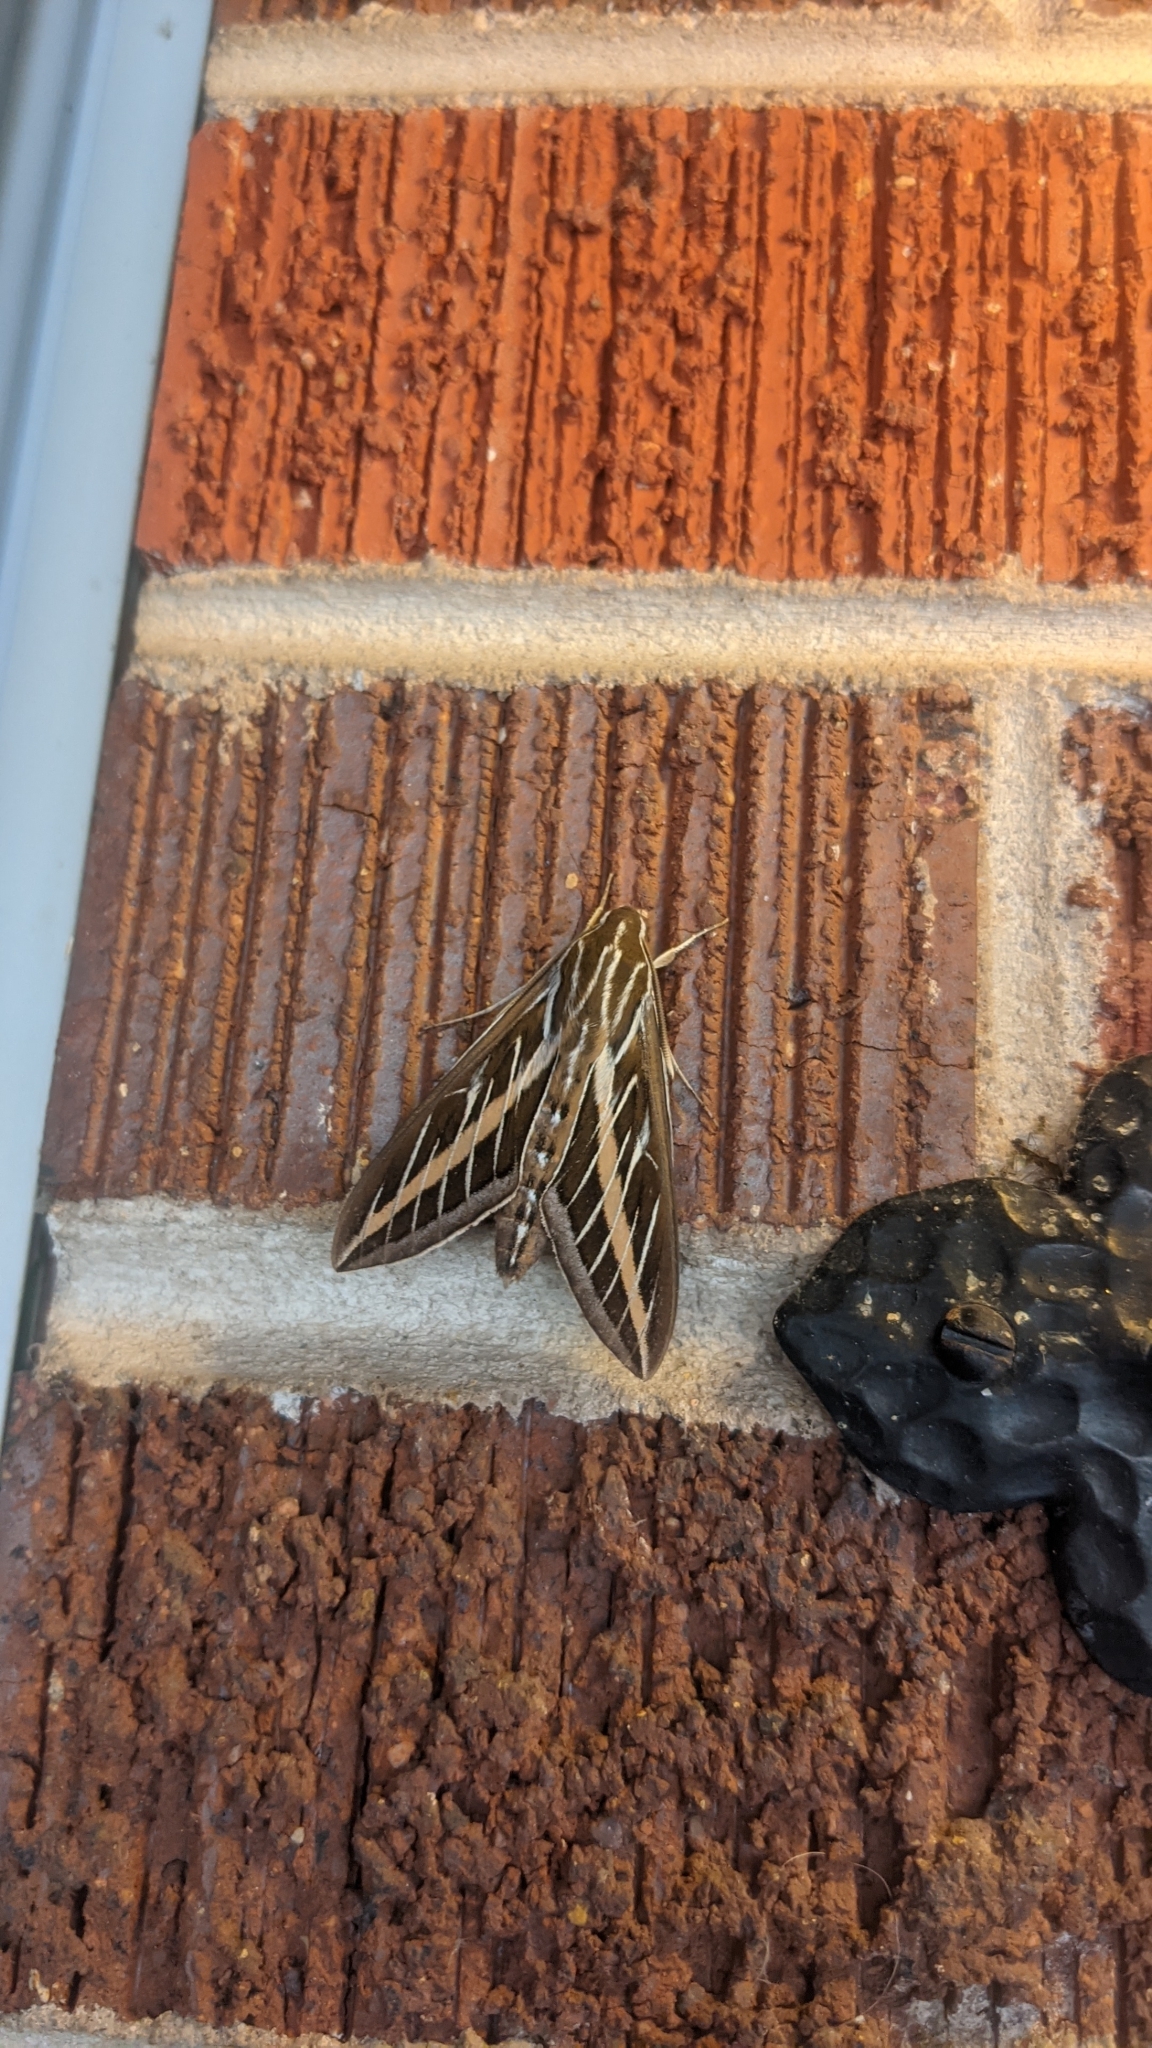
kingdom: Animalia
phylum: Arthropoda
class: Insecta
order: Lepidoptera
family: Sphingidae
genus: Hyles
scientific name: Hyles lineata
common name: White-lined sphinx
